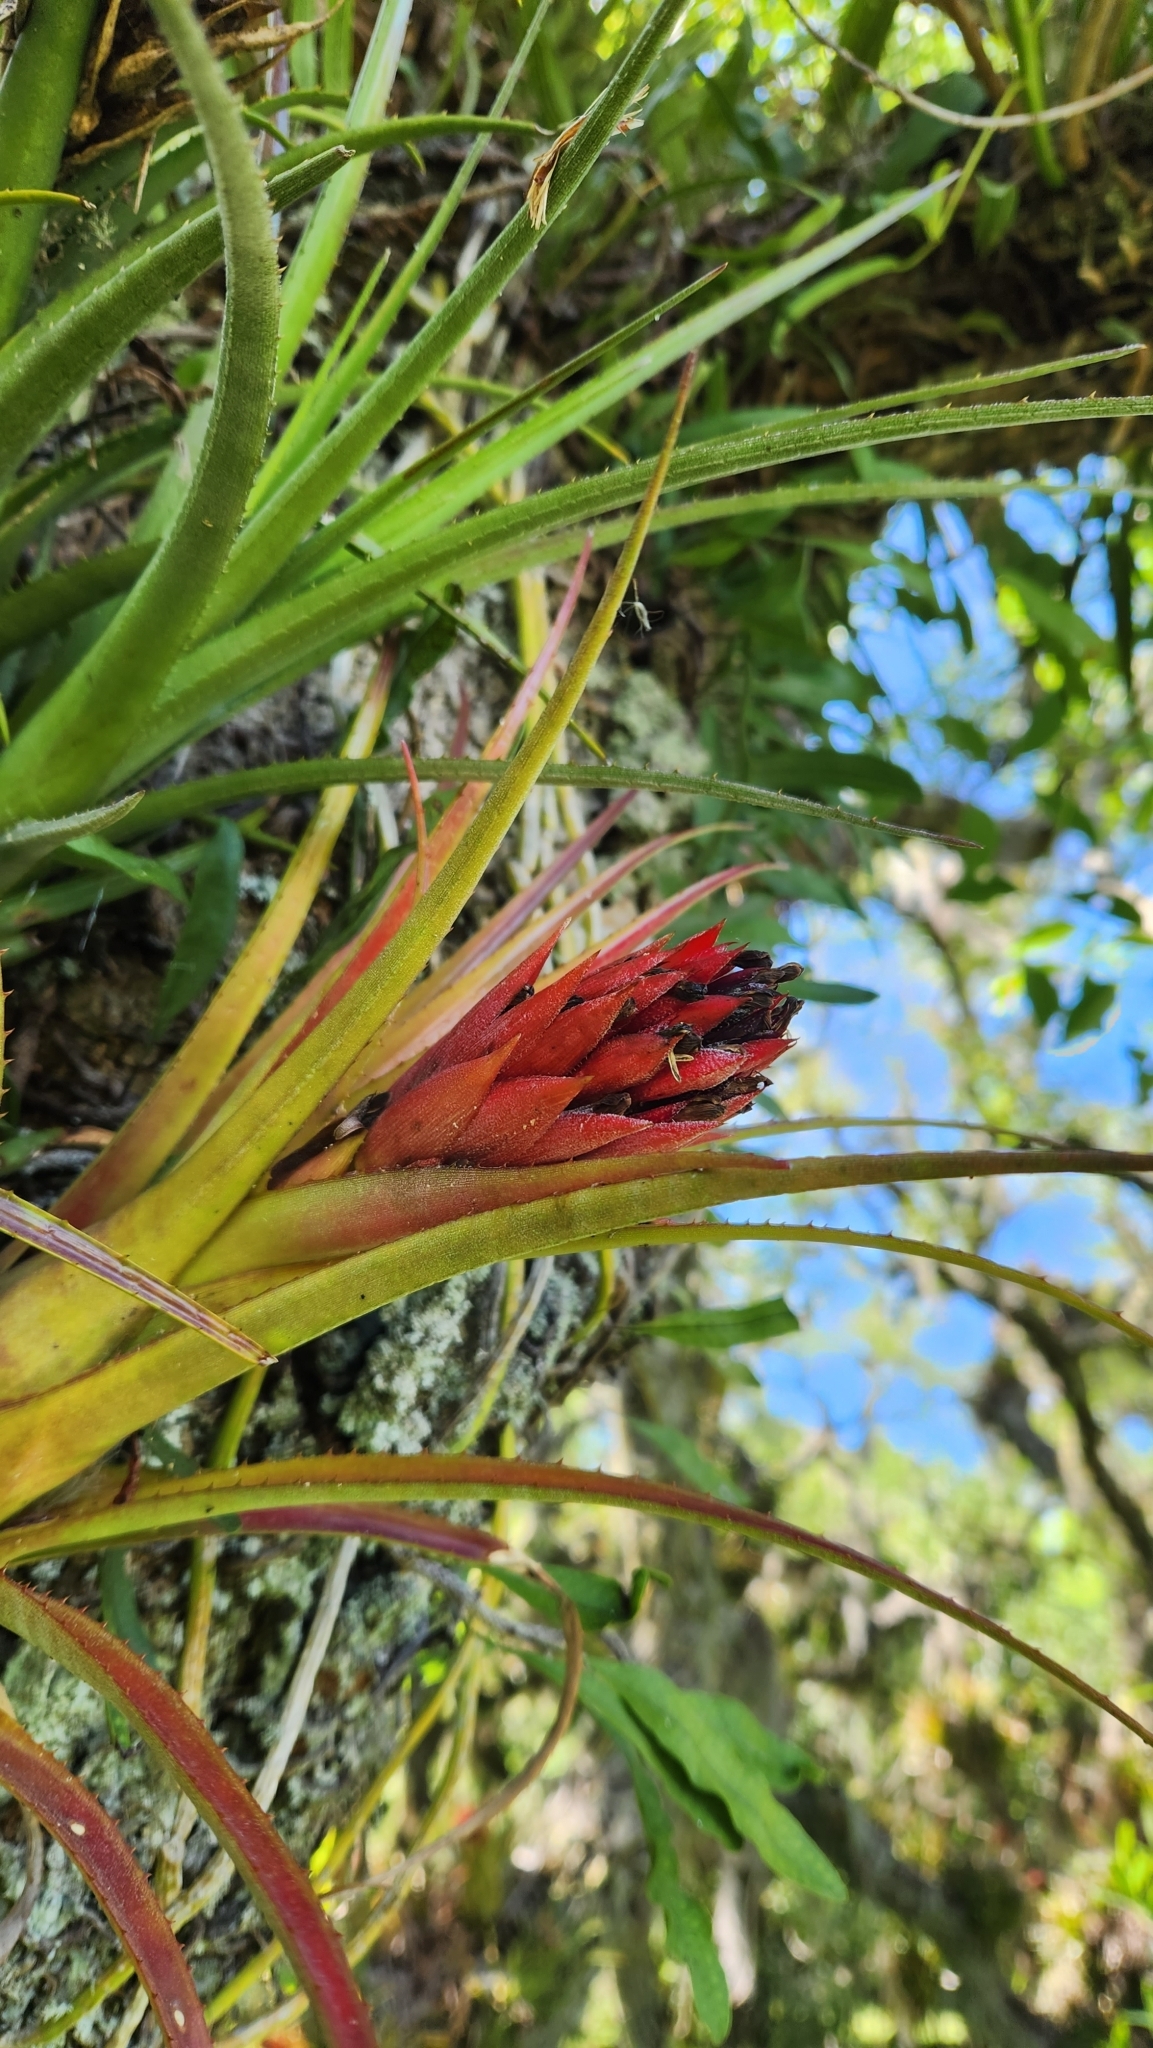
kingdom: Plantae
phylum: Tracheophyta
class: Liliopsida
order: Poales
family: Bromeliaceae
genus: Aechmea
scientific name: Aechmea recurvata
